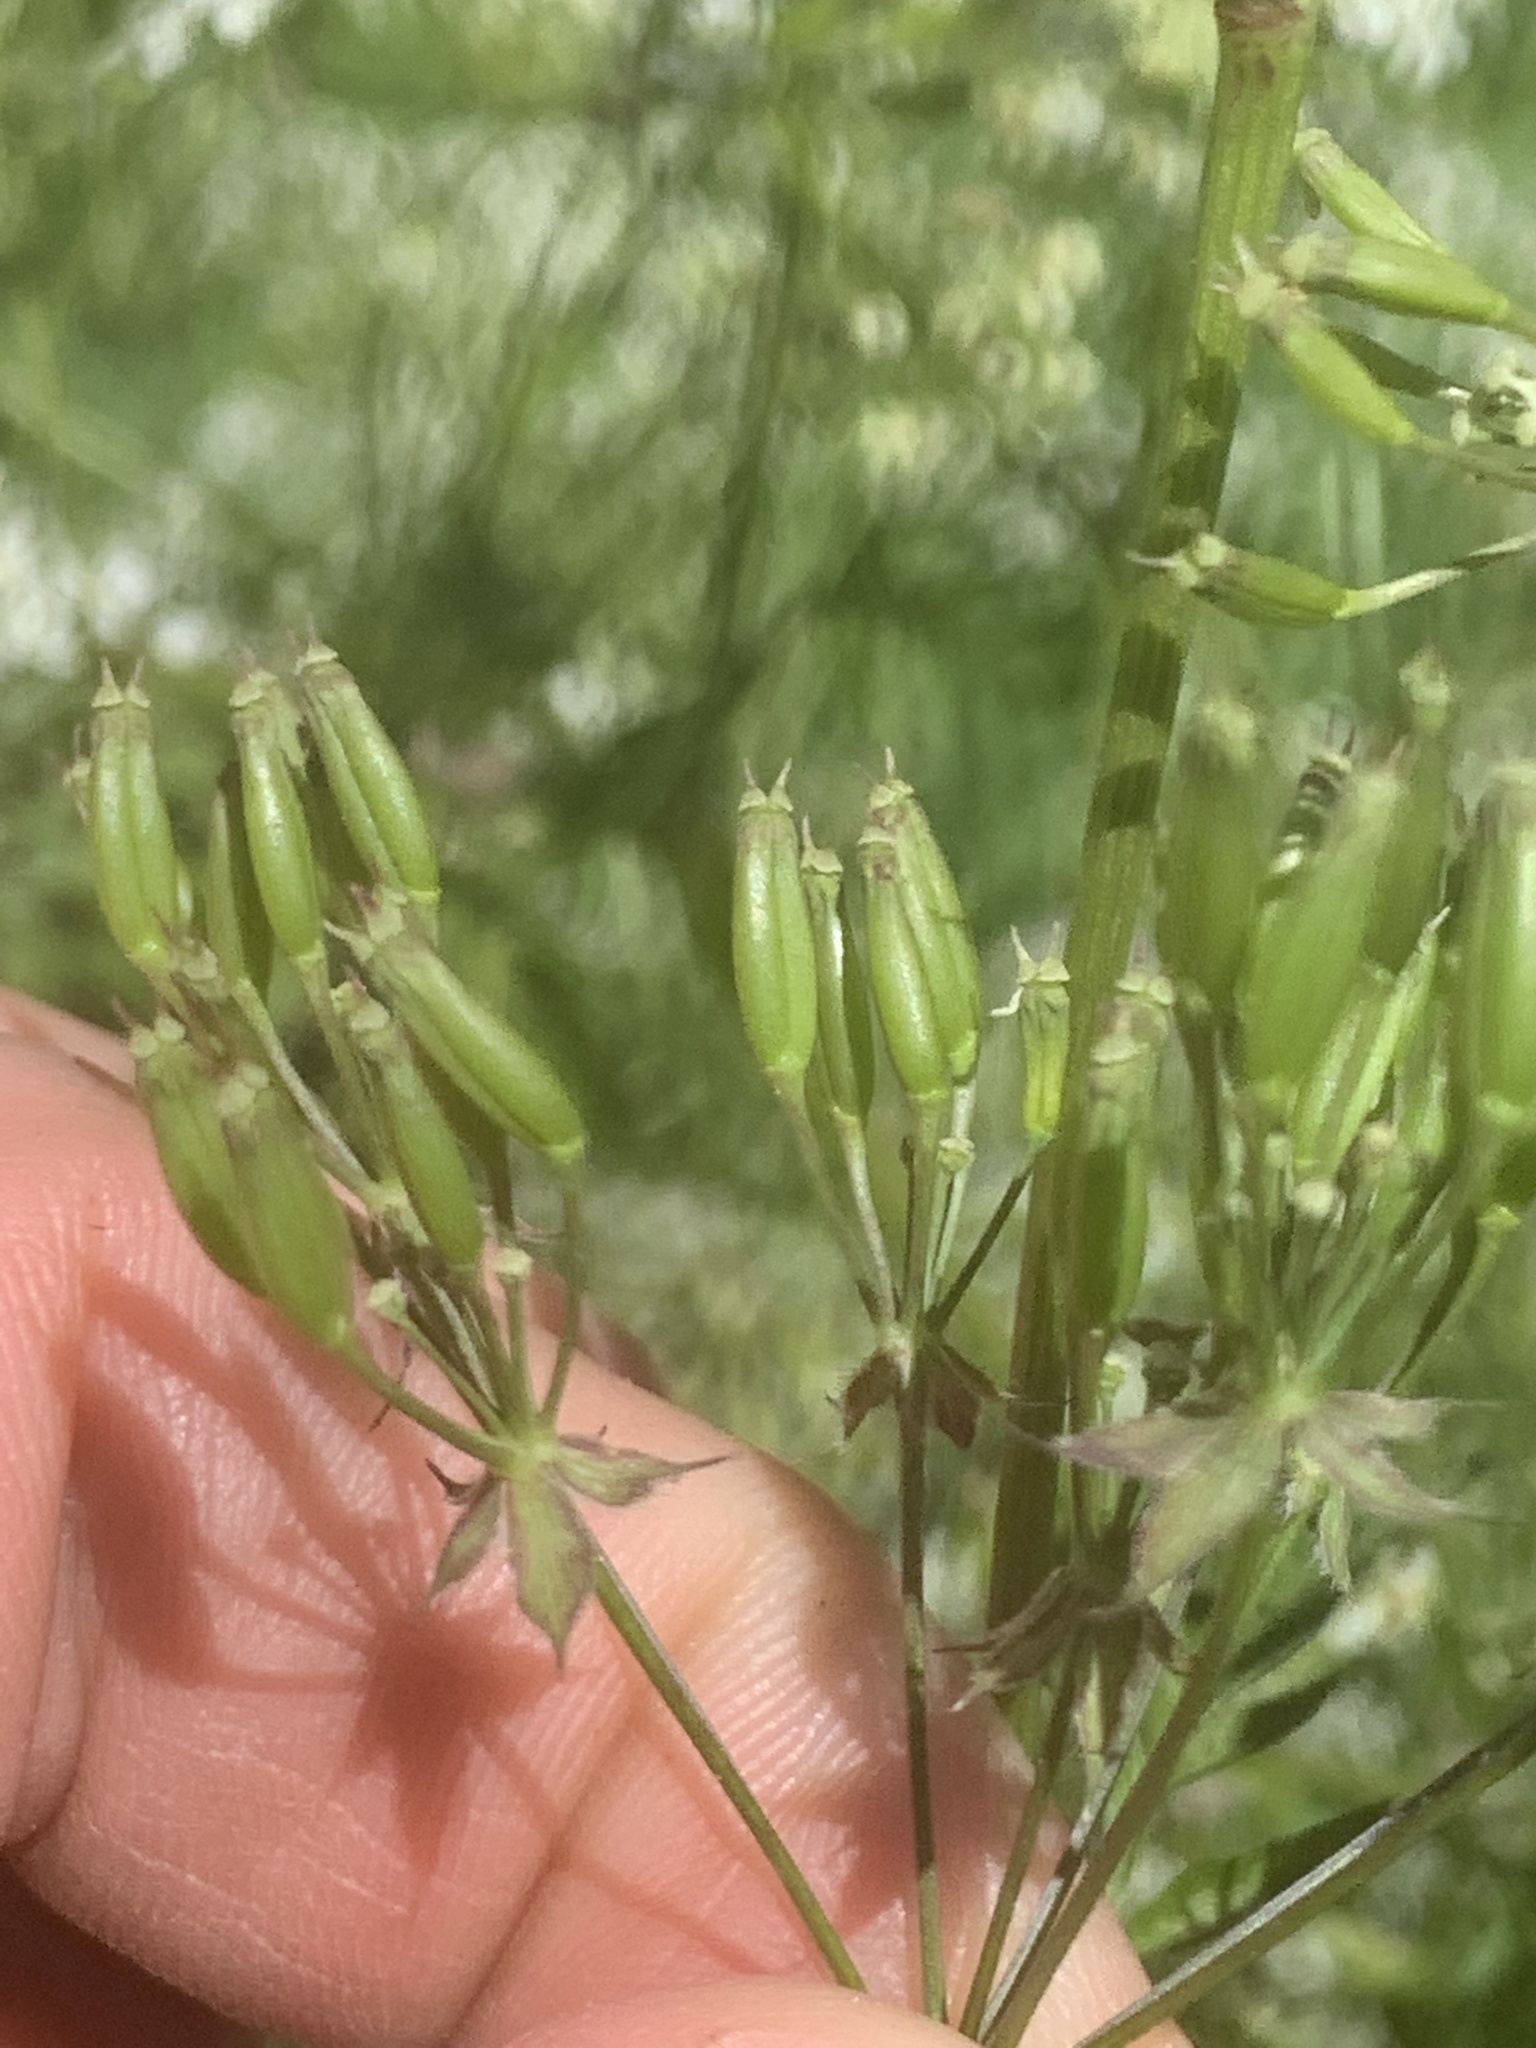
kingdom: Plantae
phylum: Tracheophyta
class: Magnoliopsida
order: Apiales
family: Apiaceae
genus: Anthriscus
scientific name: Anthriscus sylvestris
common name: Cow parsley
